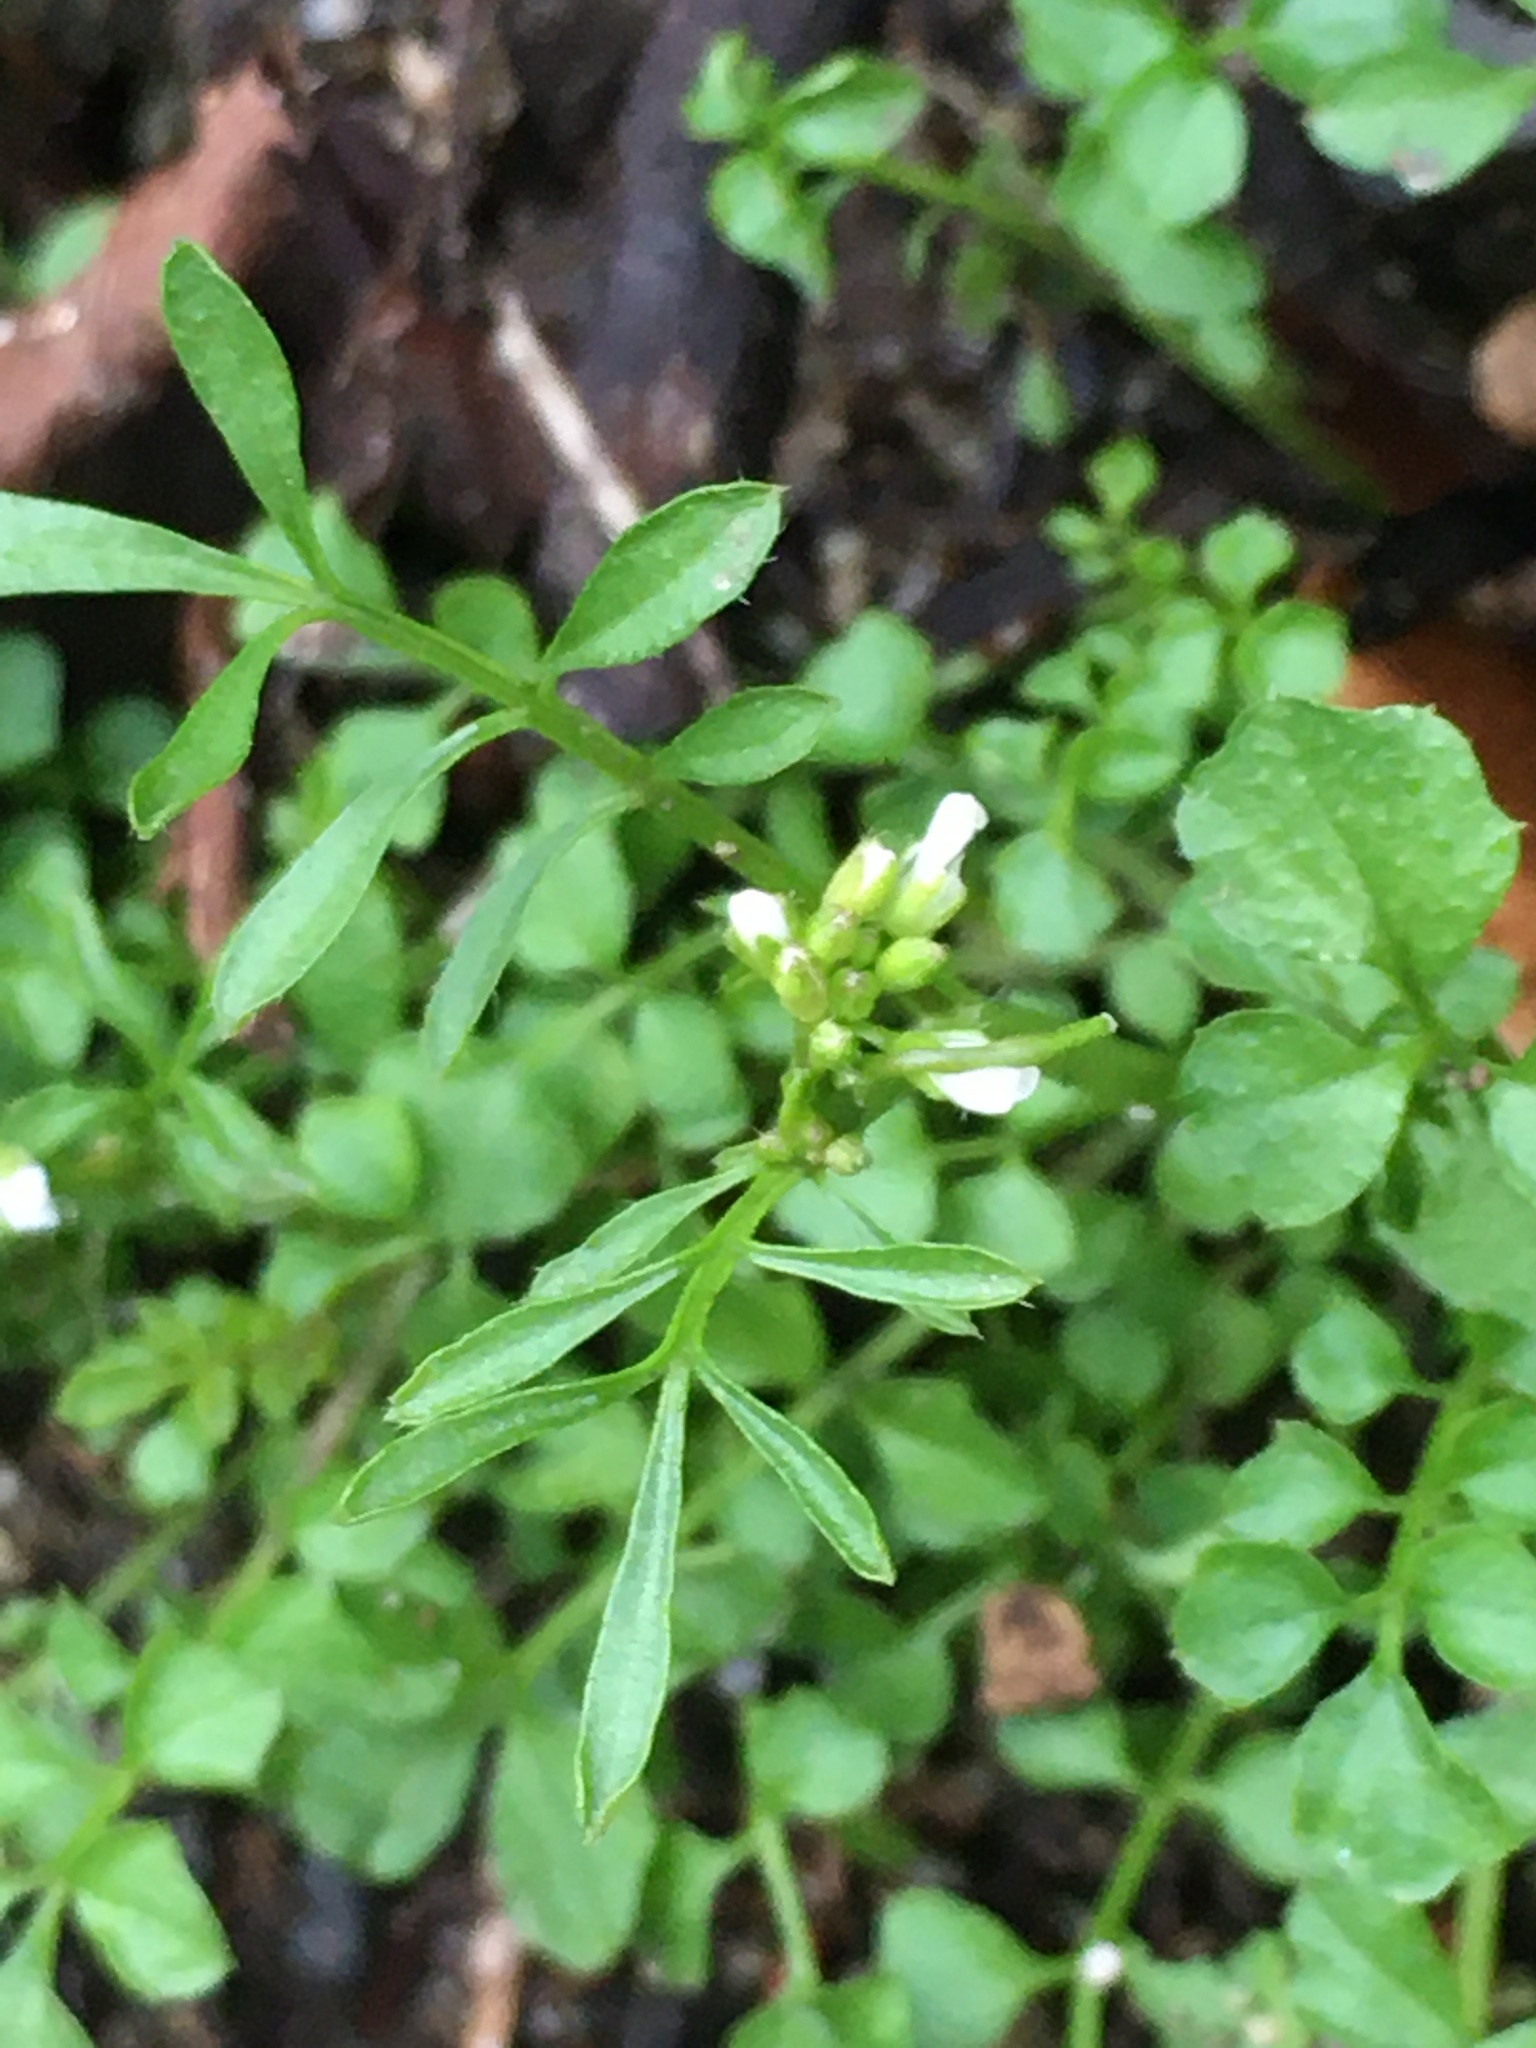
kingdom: Plantae
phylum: Tracheophyta
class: Magnoliopsida
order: Brassicales
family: Brassicaceae
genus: Cardamine
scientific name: Cardamine hirsuta
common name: Hairy bittercress
